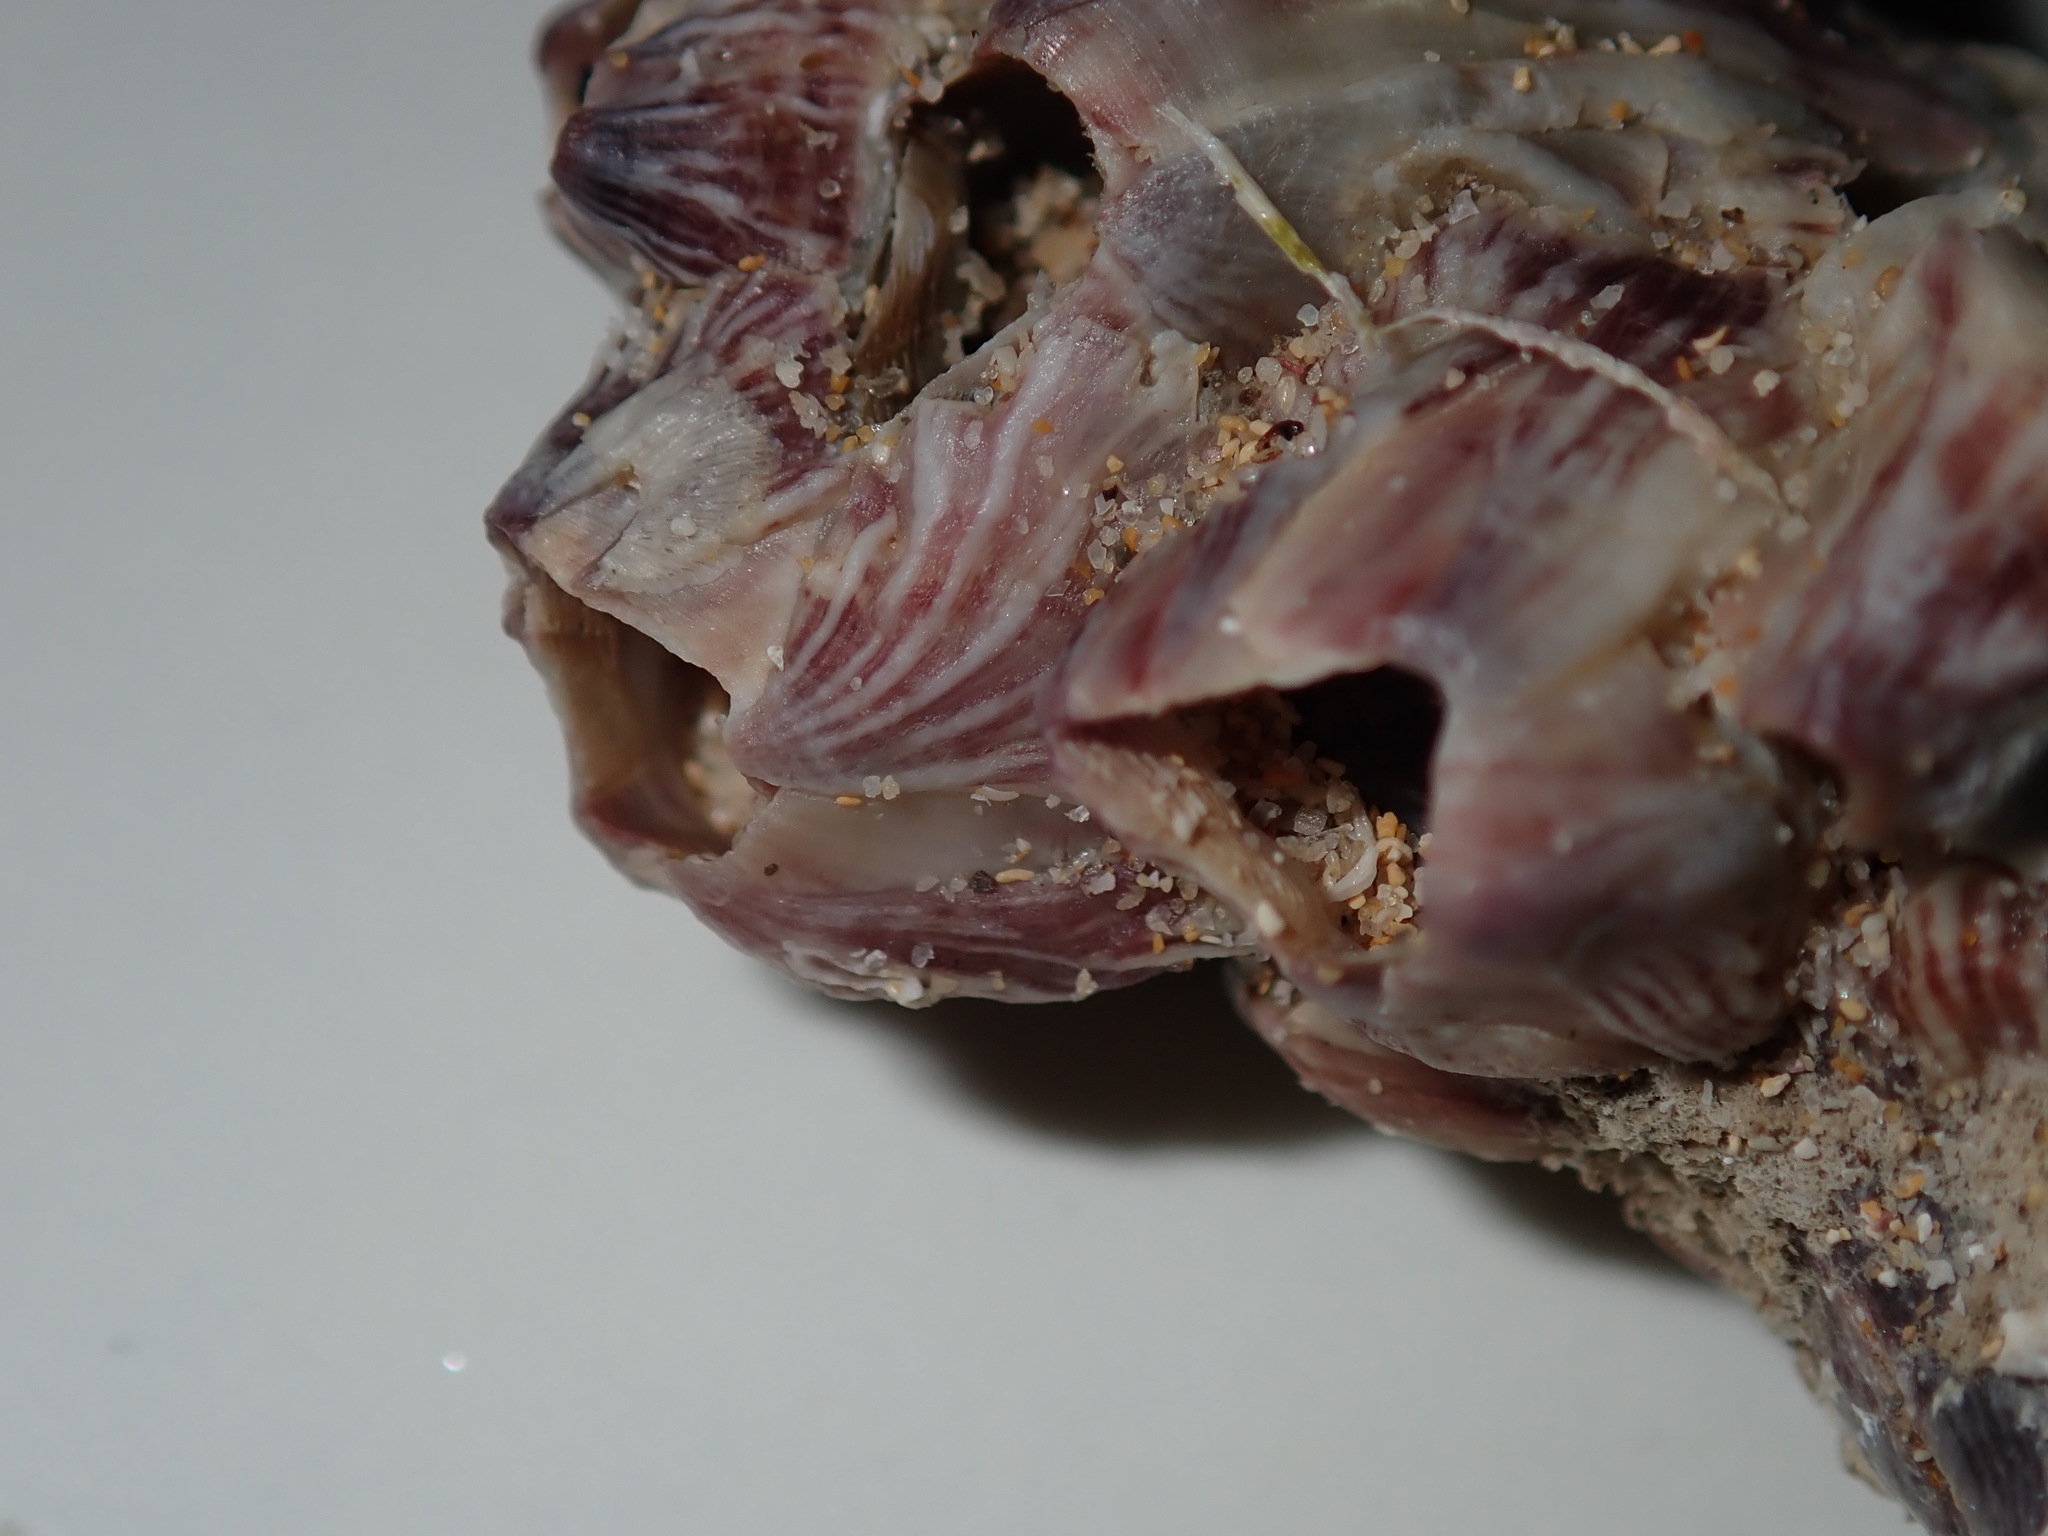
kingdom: Animalia
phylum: Arthropoda
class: Maxillopoda
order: Sessilia
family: Balanidae
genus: Balanus
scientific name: Balanus trigonus
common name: Triangle barnacle
